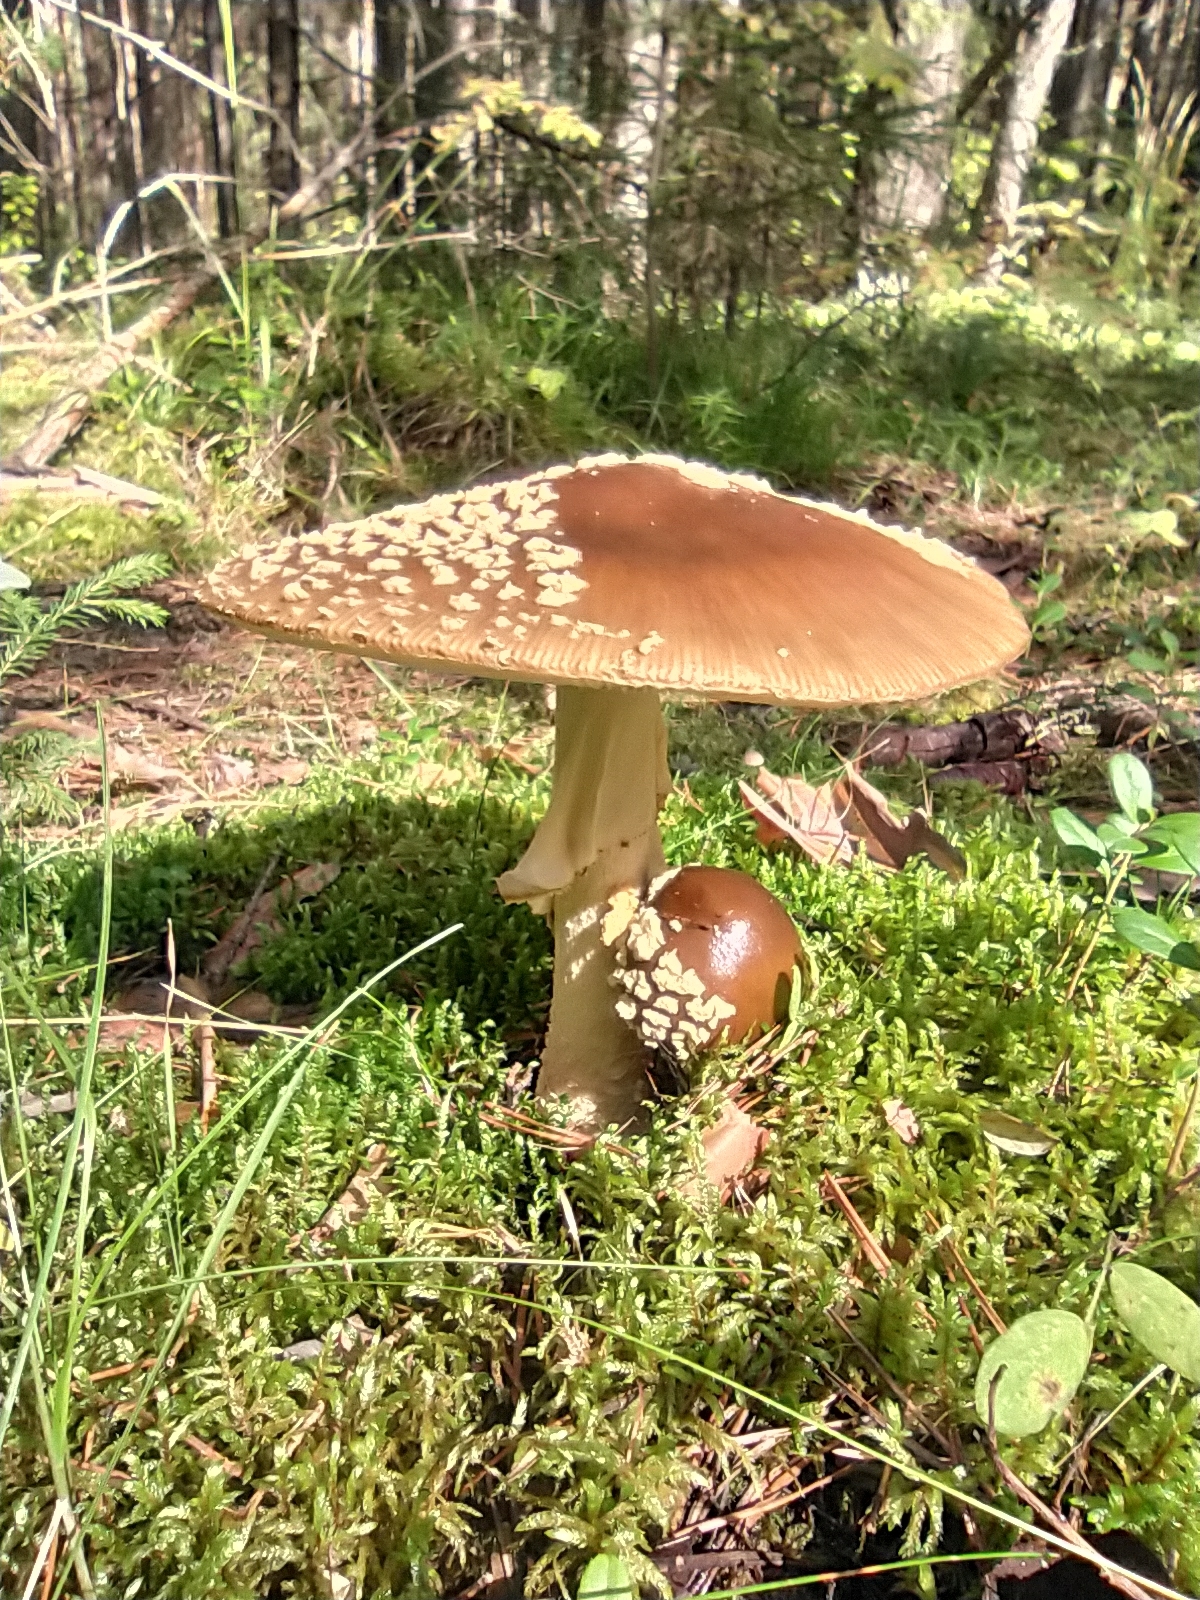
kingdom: Fungi
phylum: Basidiomycota
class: Agaricomycetes
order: Agaricales
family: Amanitaceae
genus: Amanita
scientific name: Amanita regalis
